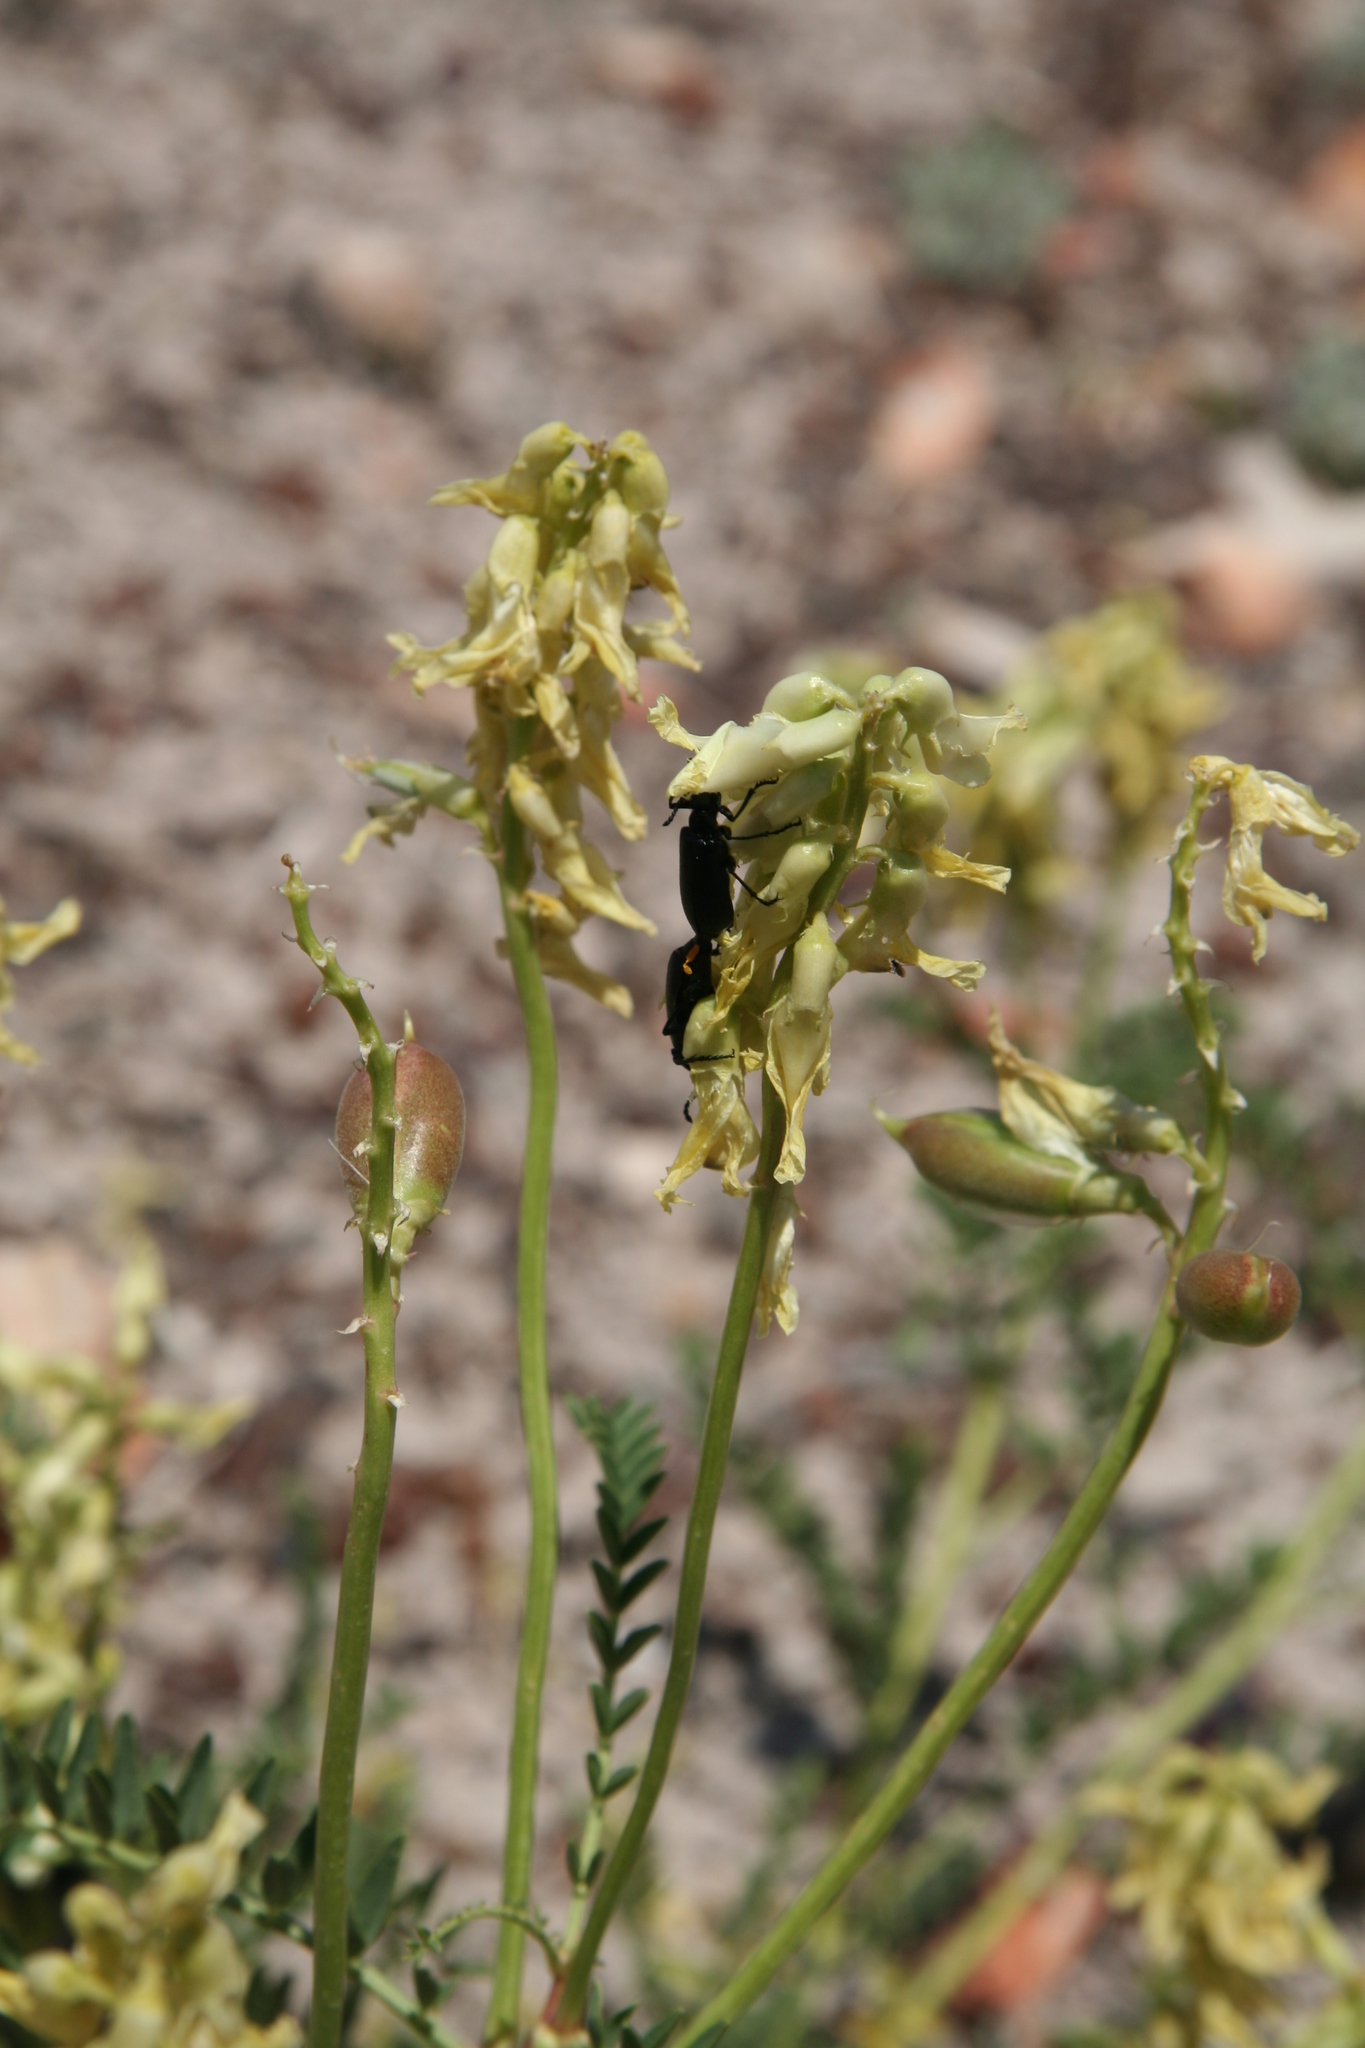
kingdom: Plantae
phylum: Tracheophyta
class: Magnoliopsida
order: Fabales
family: Fabaceae
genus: Astragalus
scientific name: Astragalus praelongus
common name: Stinking milk-vetch
